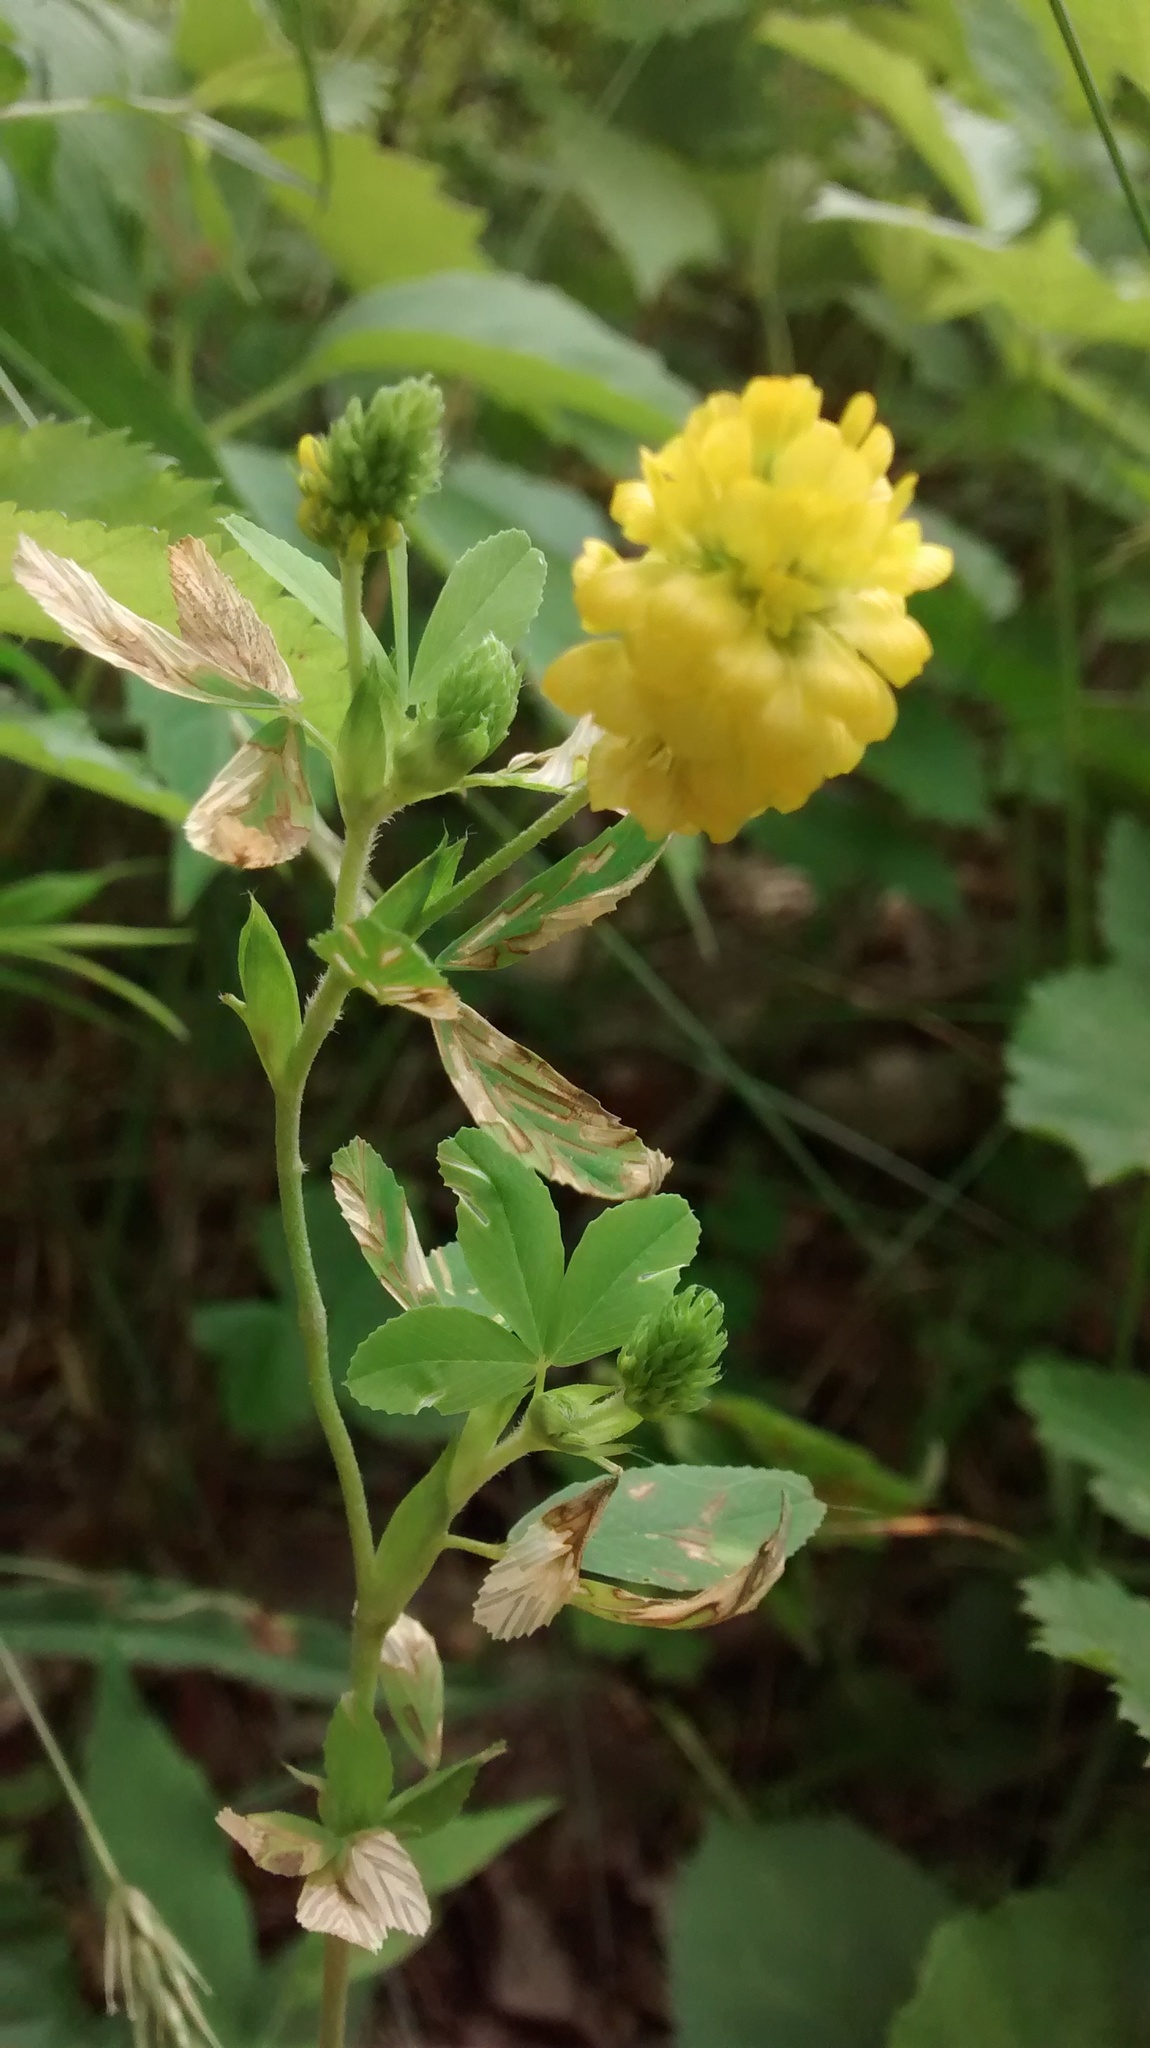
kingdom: Plantae
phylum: Tracheophyta
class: Magnoliopsida
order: Fabales
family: Fabaceae
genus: Trifolium
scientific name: Trifolium aureum
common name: Golden clover
